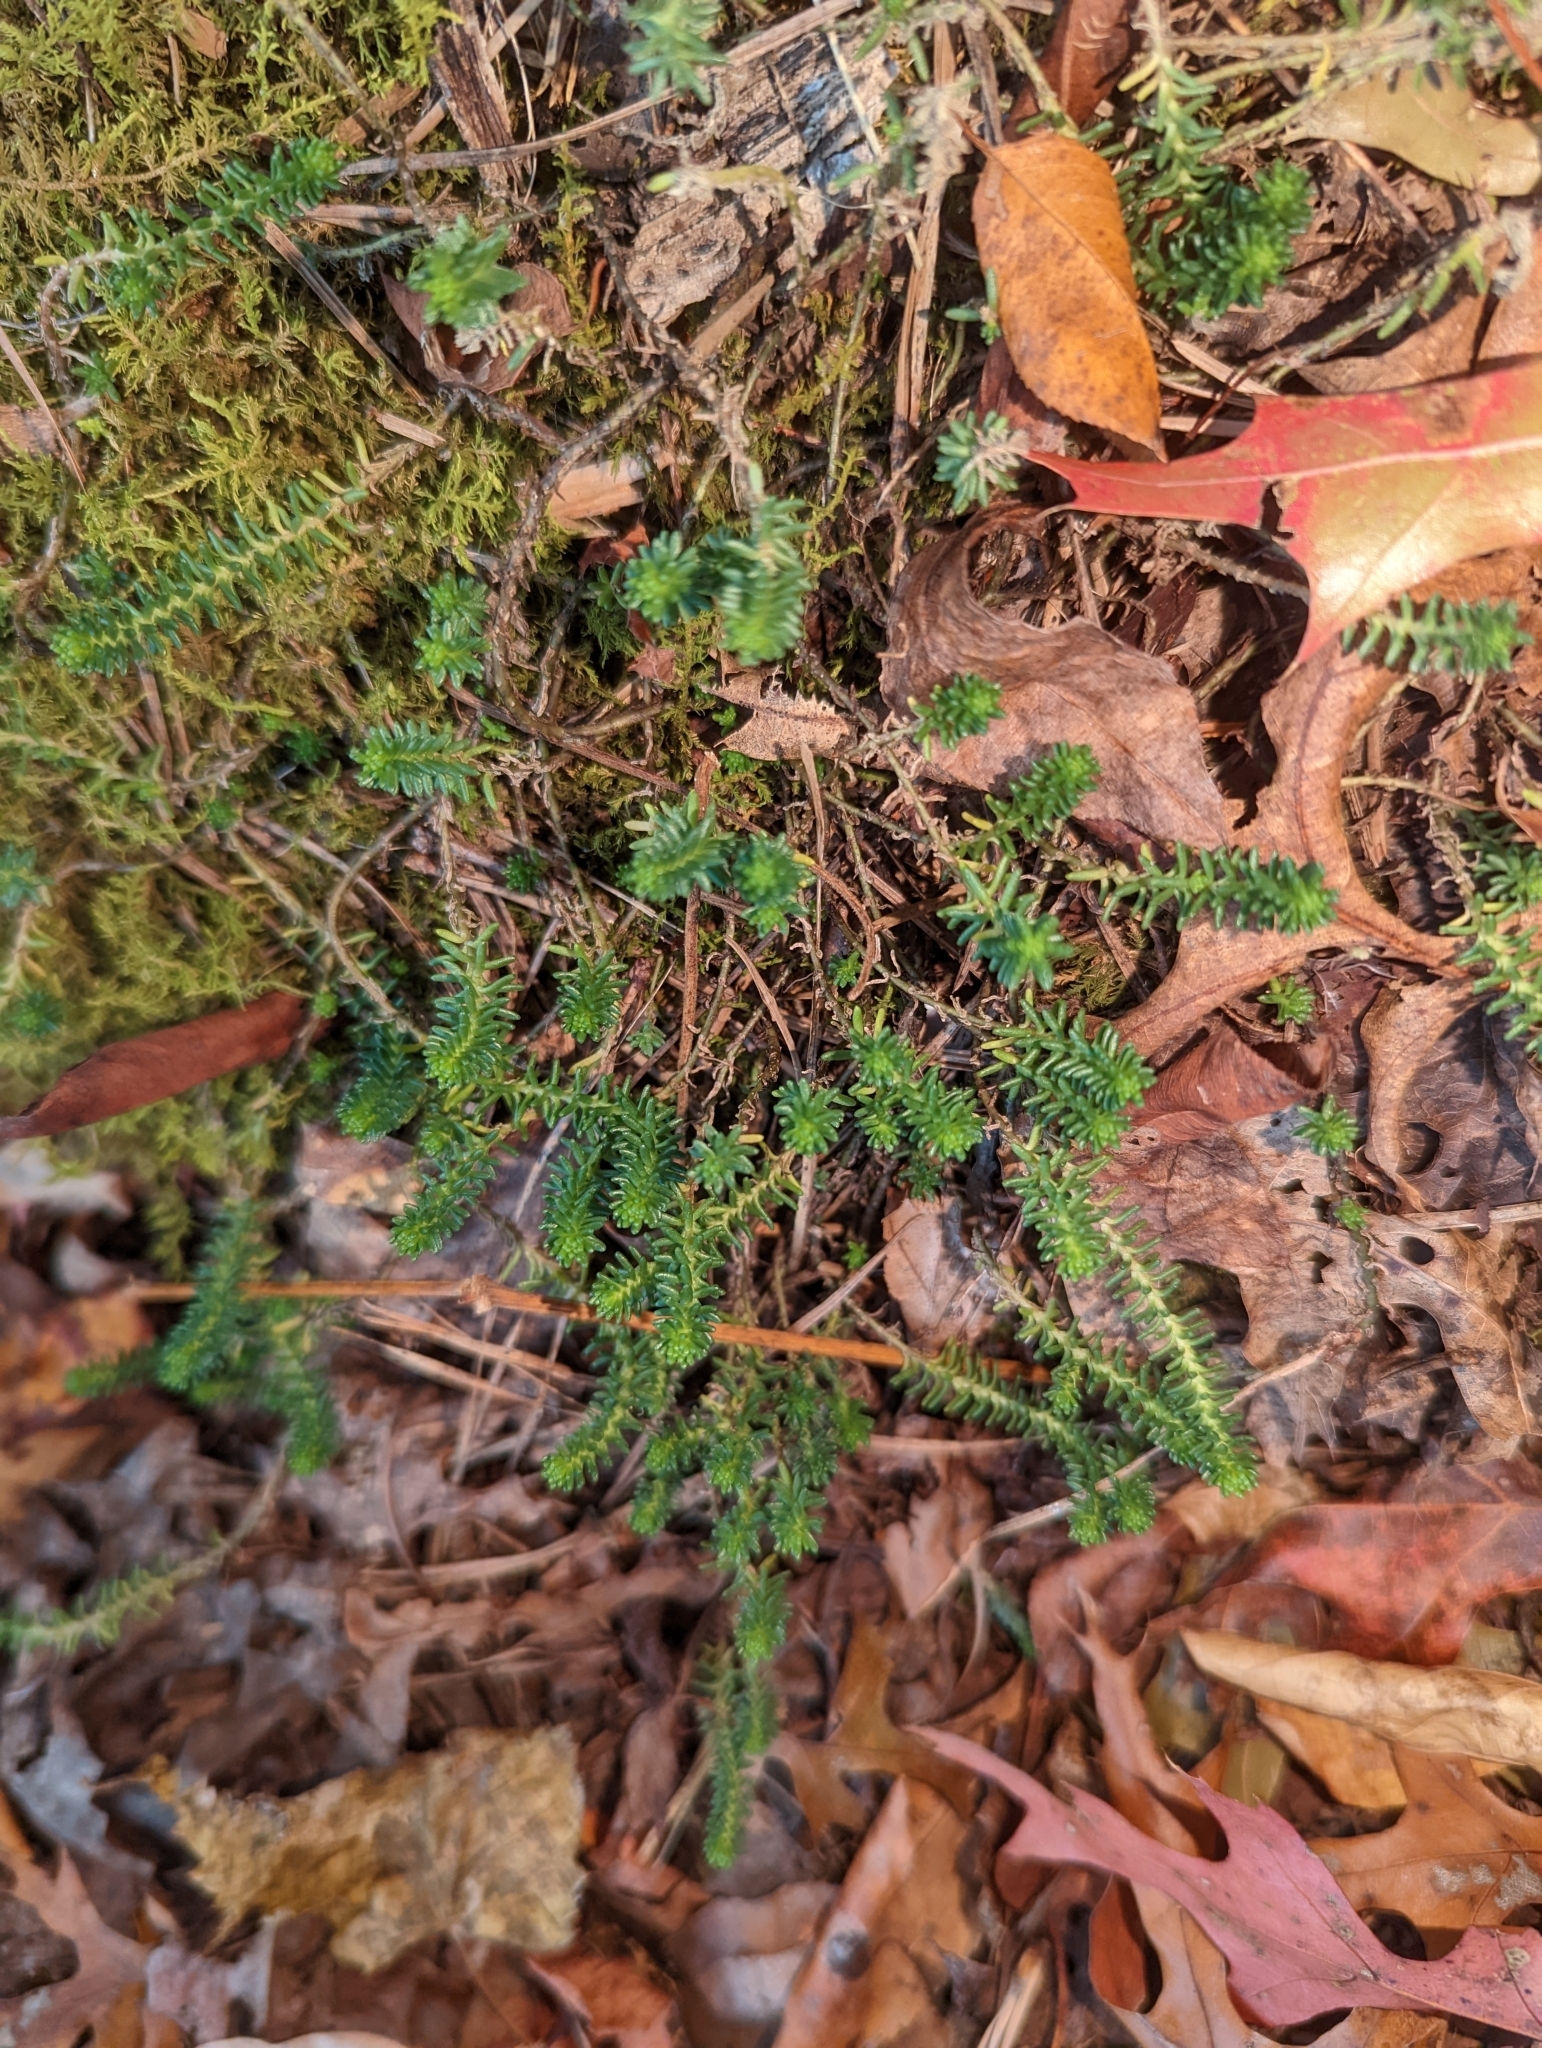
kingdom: Plantae
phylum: Tracheophyta
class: Magnoliopsida
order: Saxifragales
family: Crassulaceae
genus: Sedum
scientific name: Sedum sexangulare
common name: Tasteless stonecrop
